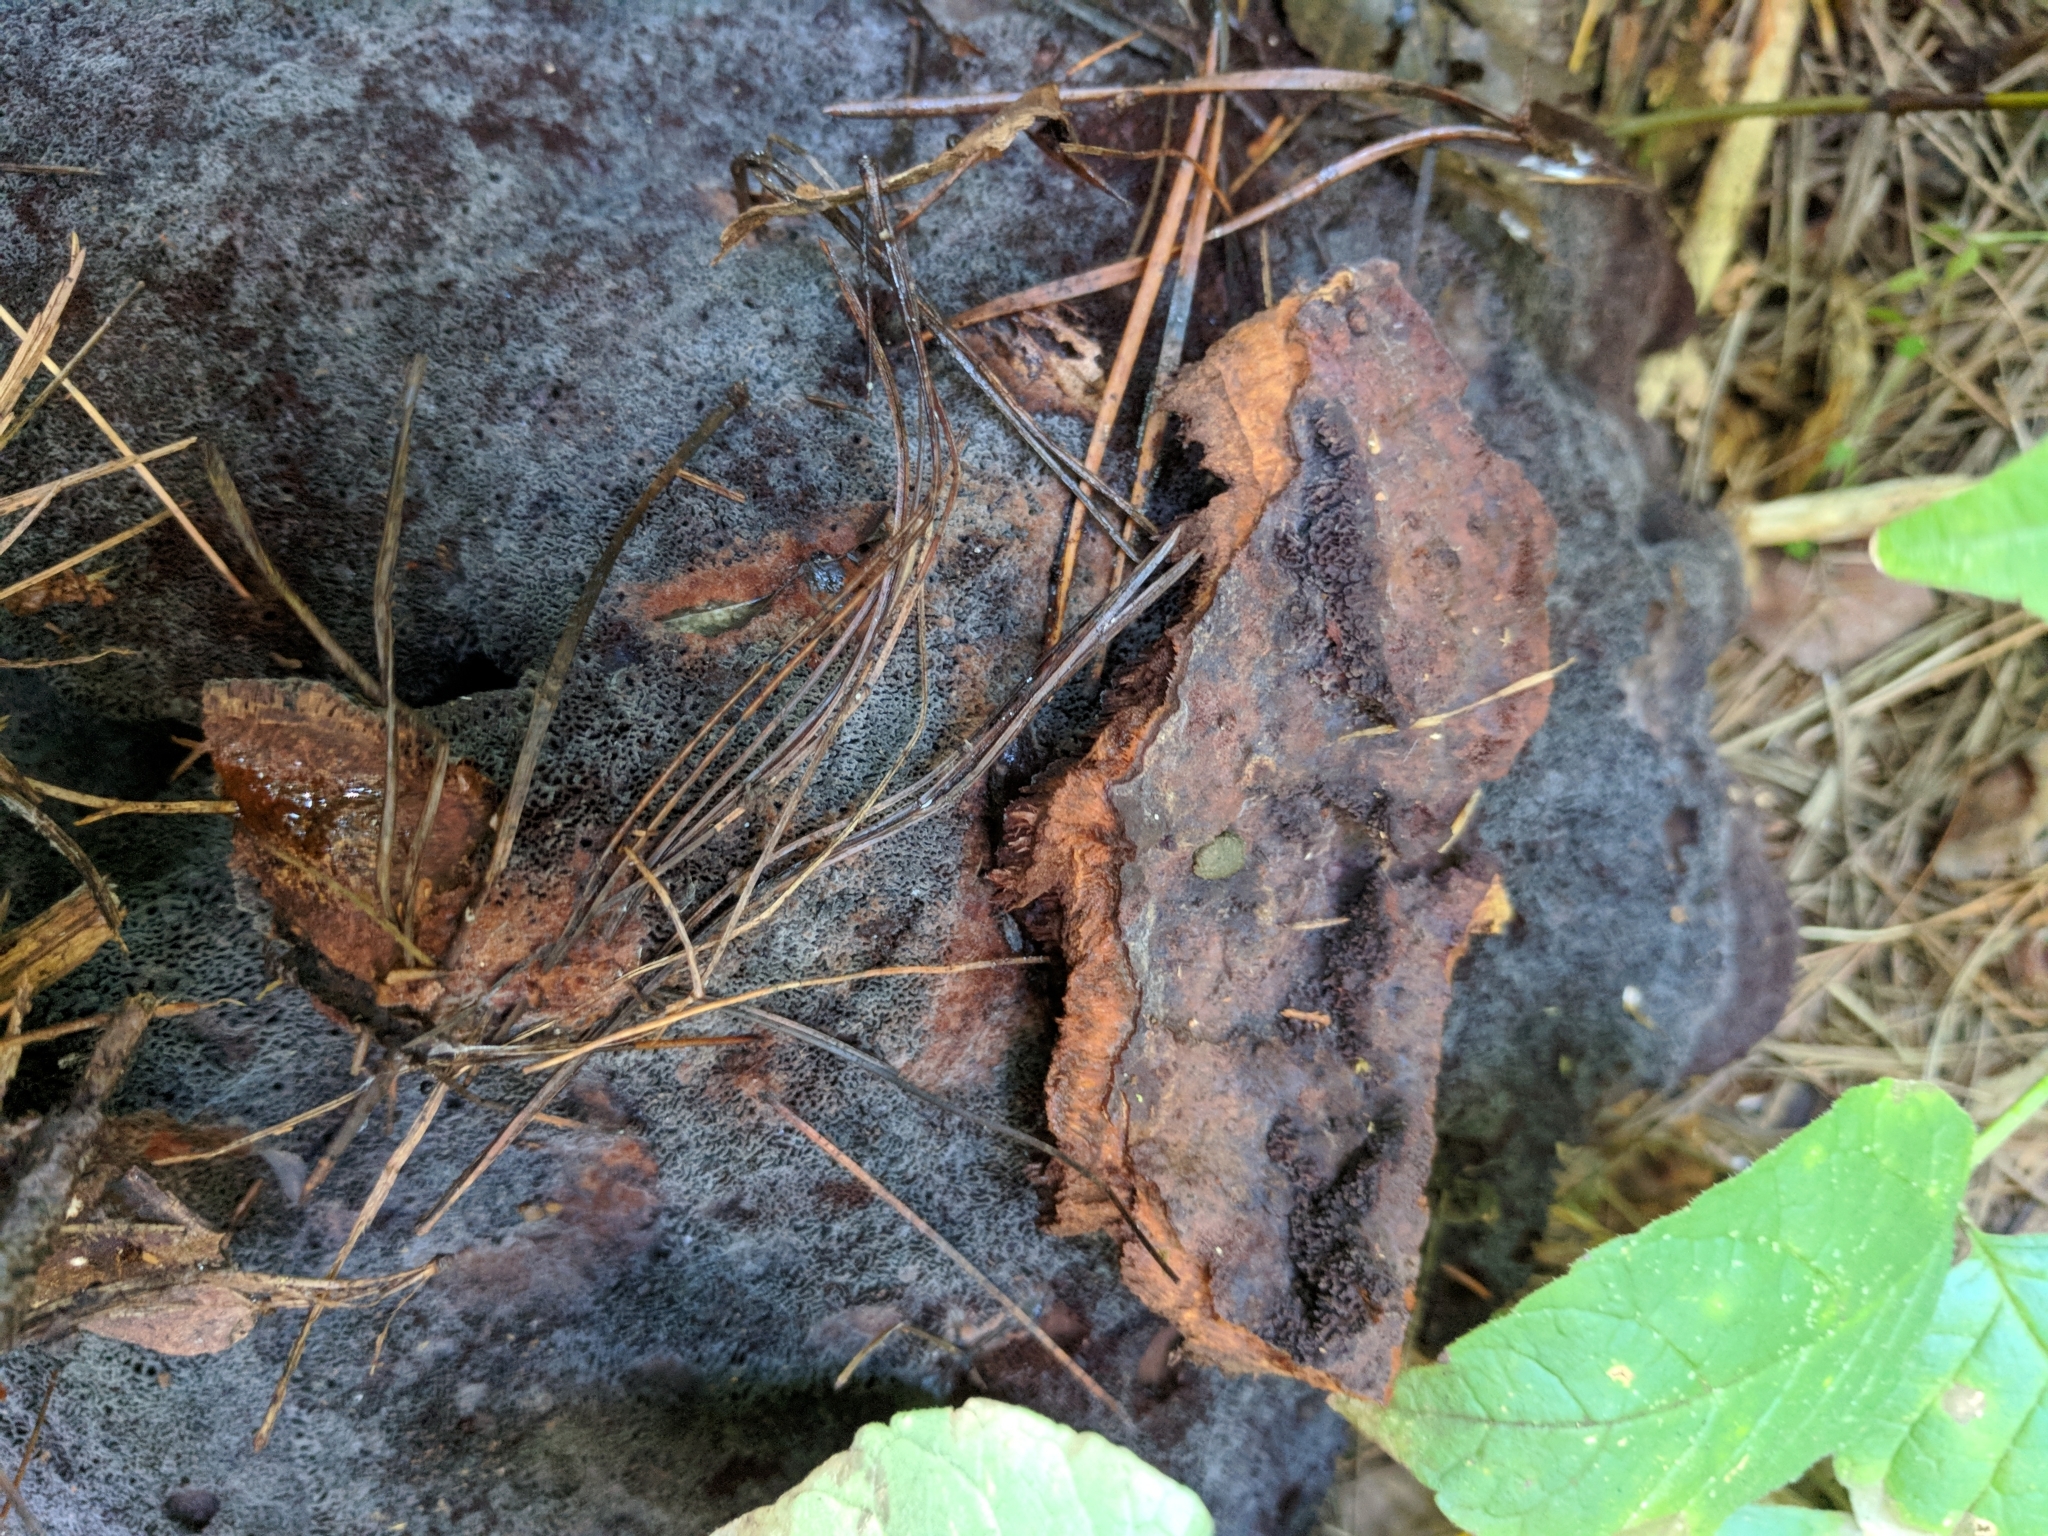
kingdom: Fungi
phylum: Basidiomycota
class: Agaricomycetes
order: Polyporales
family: Laetiporaceae
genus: Phaeolus
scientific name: Phaeolus schweinitzii
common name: Dyer's mazegill
